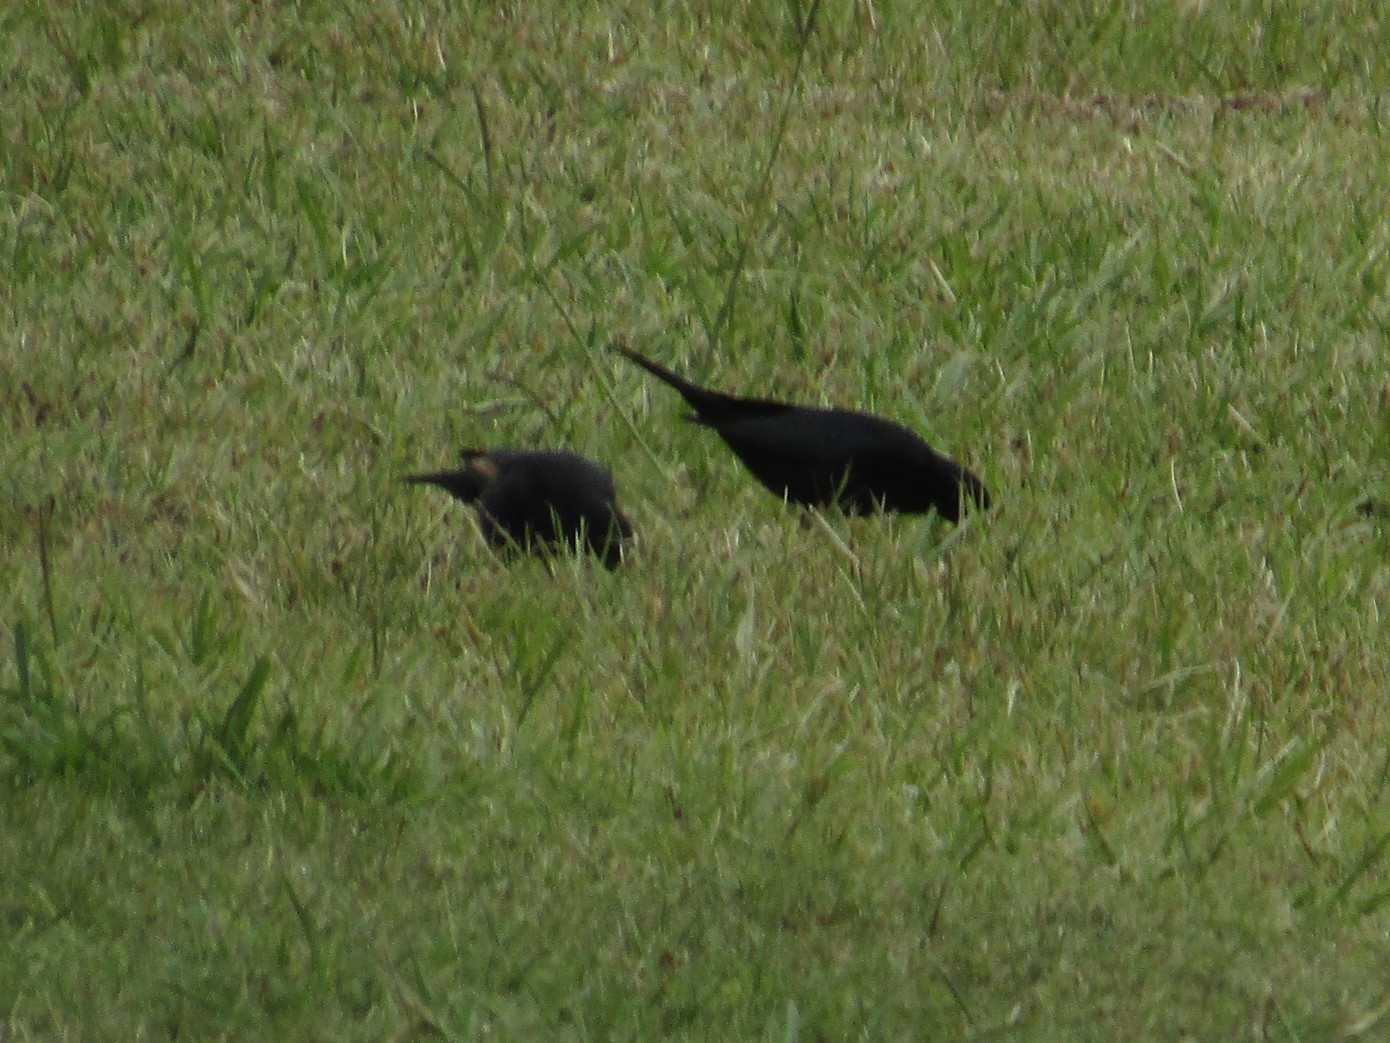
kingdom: Animalia
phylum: Chordata
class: Aves
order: Passeriformes
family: Icteridae
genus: Molothrus
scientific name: Molothrus rufoaxillaris
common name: Screaming cowbird
